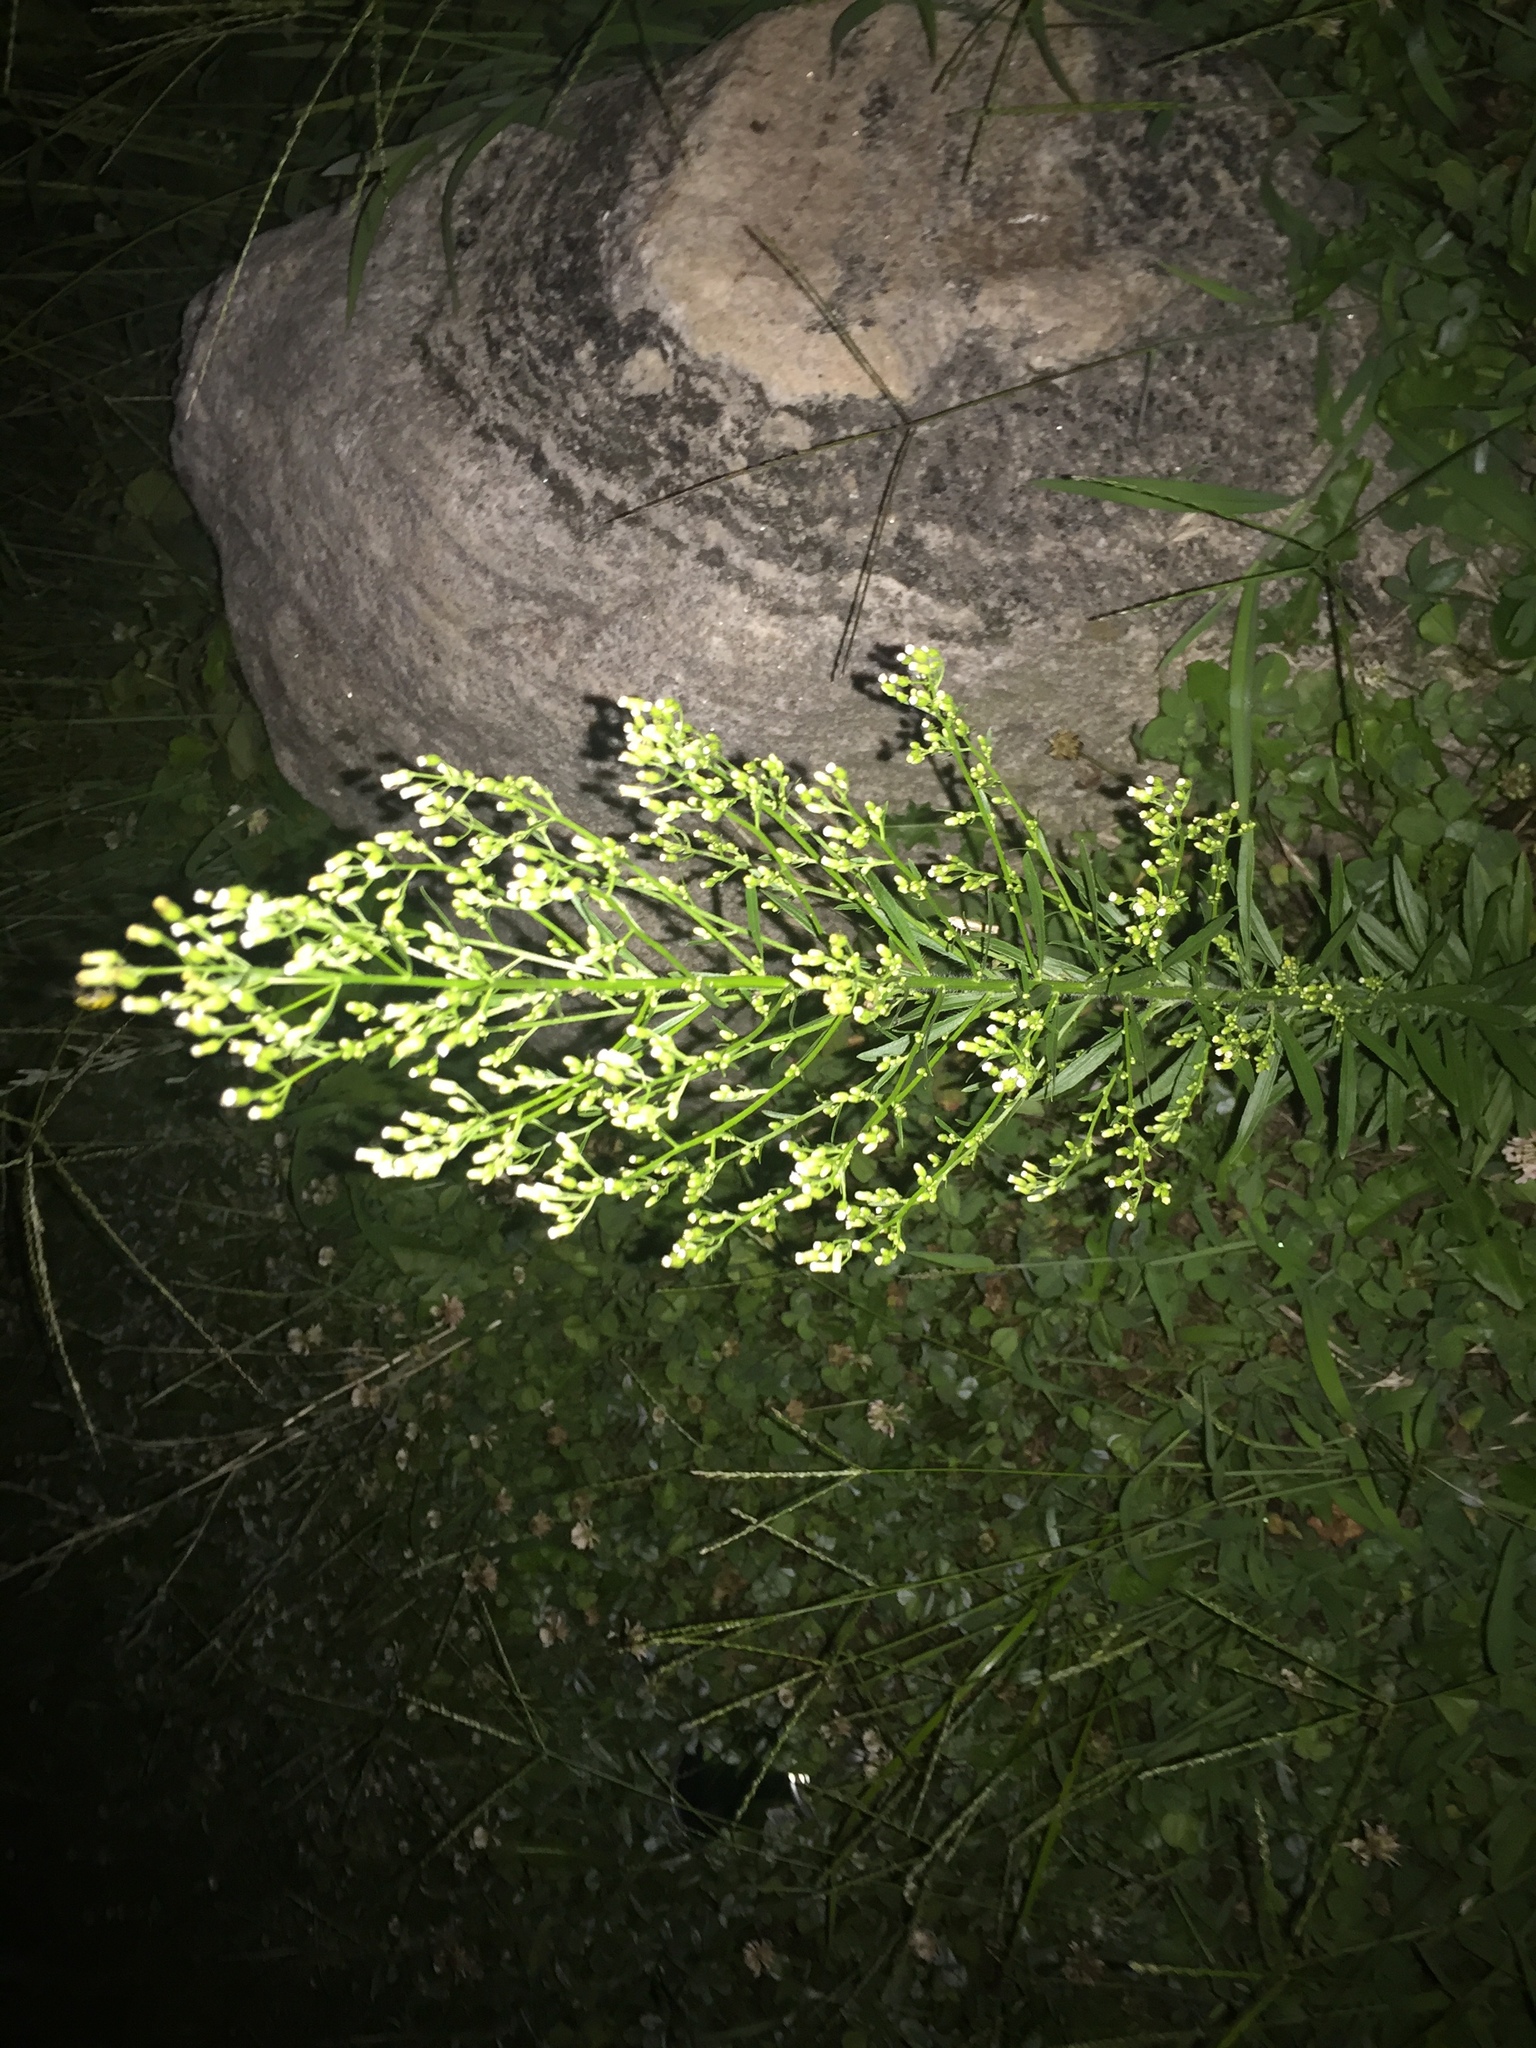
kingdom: Plantae
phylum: Tracheophyta
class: Magnoliopsida
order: Asterales
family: Asteraceae
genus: Erigeron
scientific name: Erigeron canadensis
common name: Canadian fleabane
